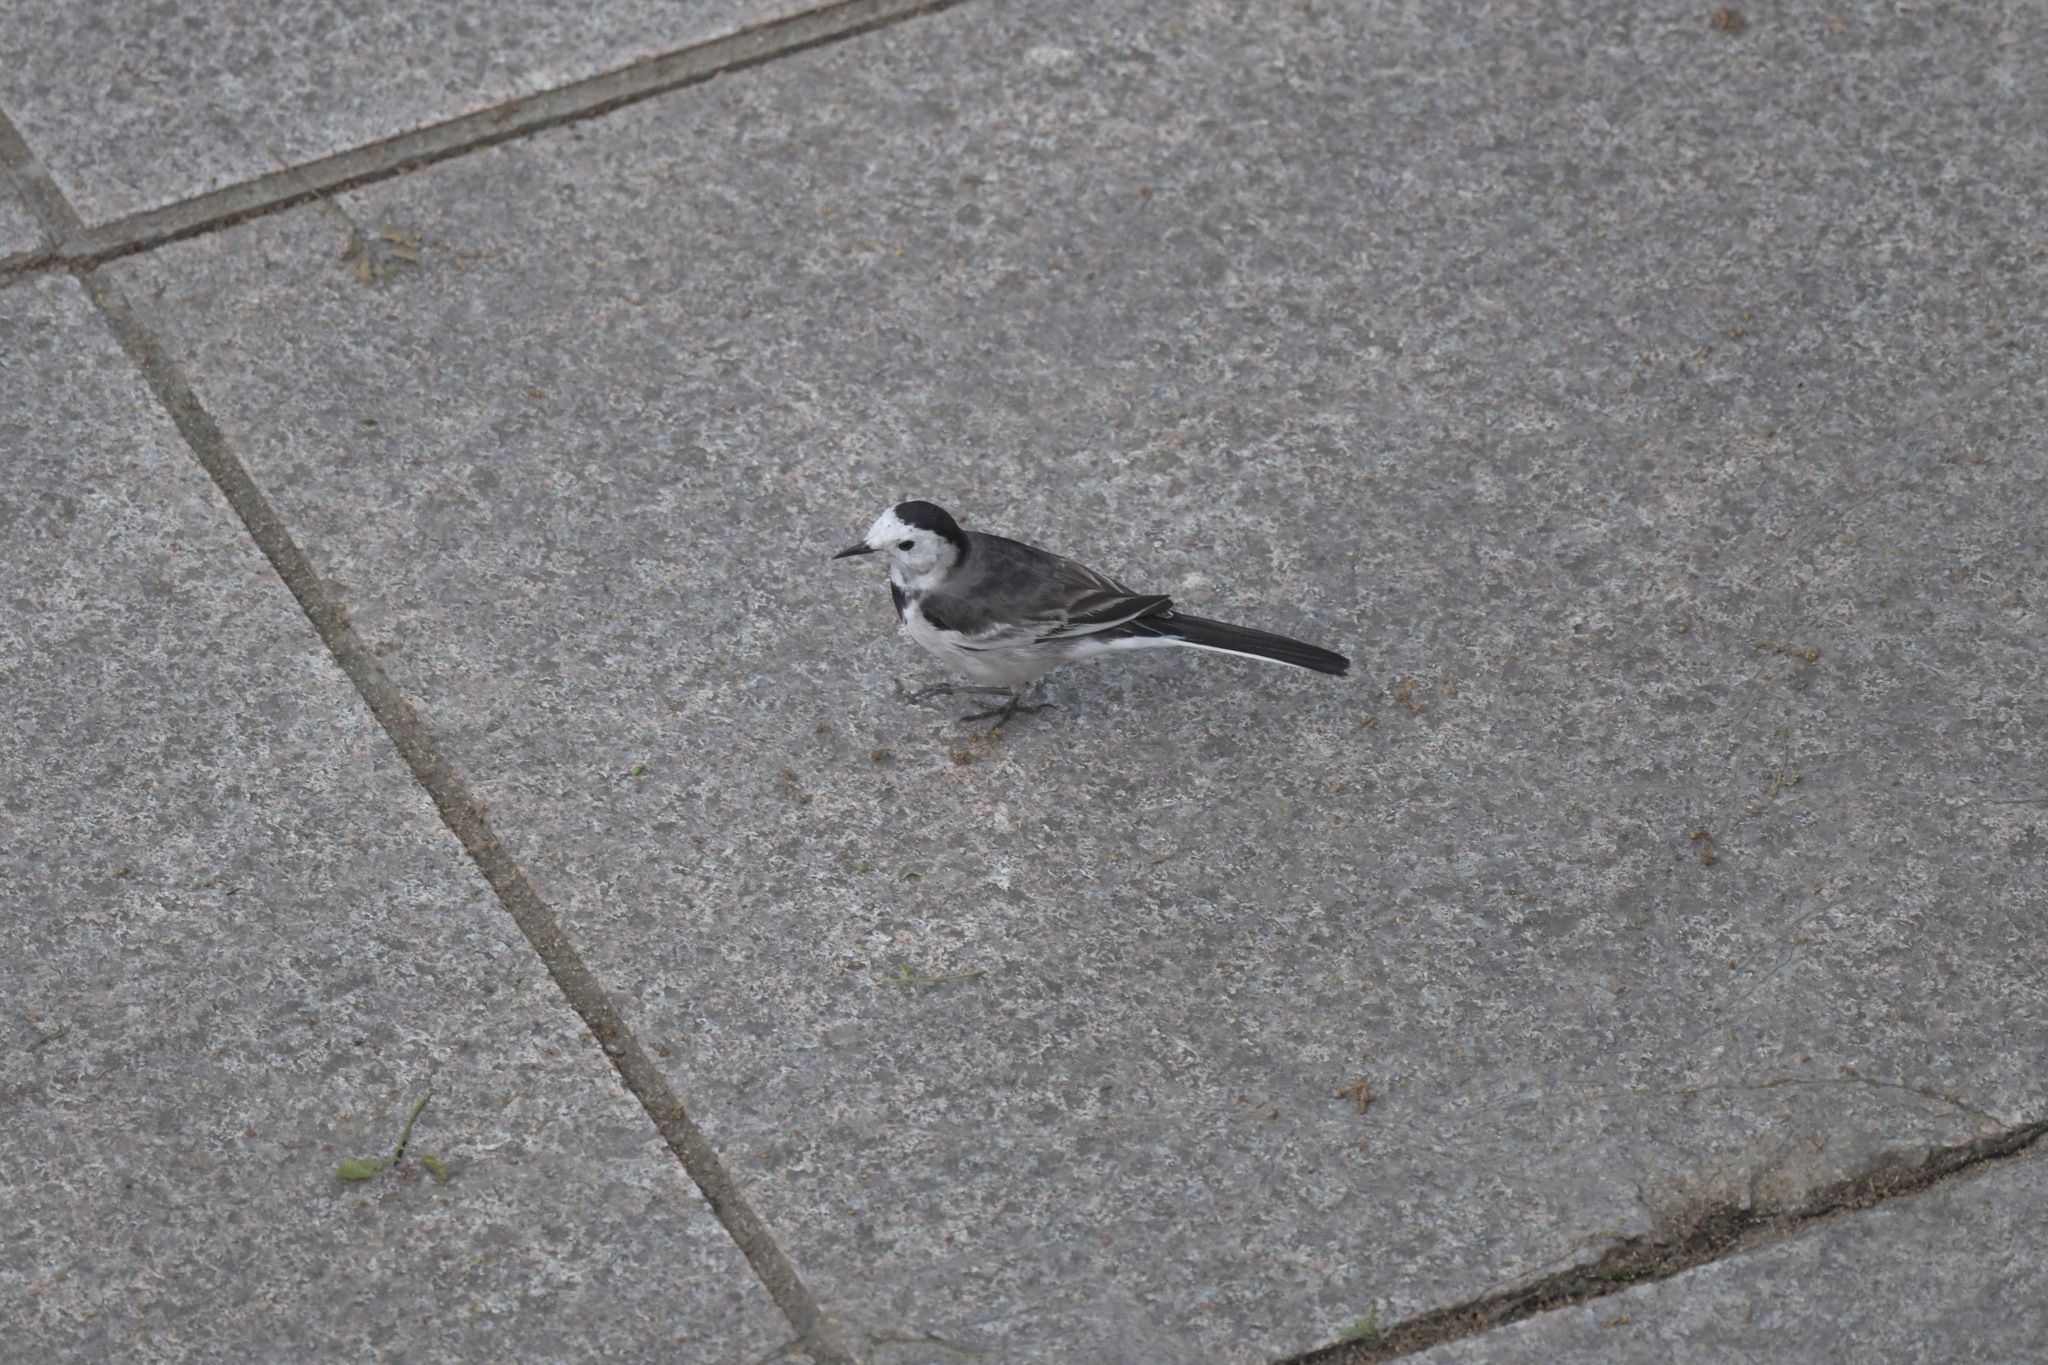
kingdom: Animalia
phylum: Chordata
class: Aves
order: Passeriformes
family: Motacillidae
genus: Motacilla
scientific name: Motacilla alba
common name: White wagtail
